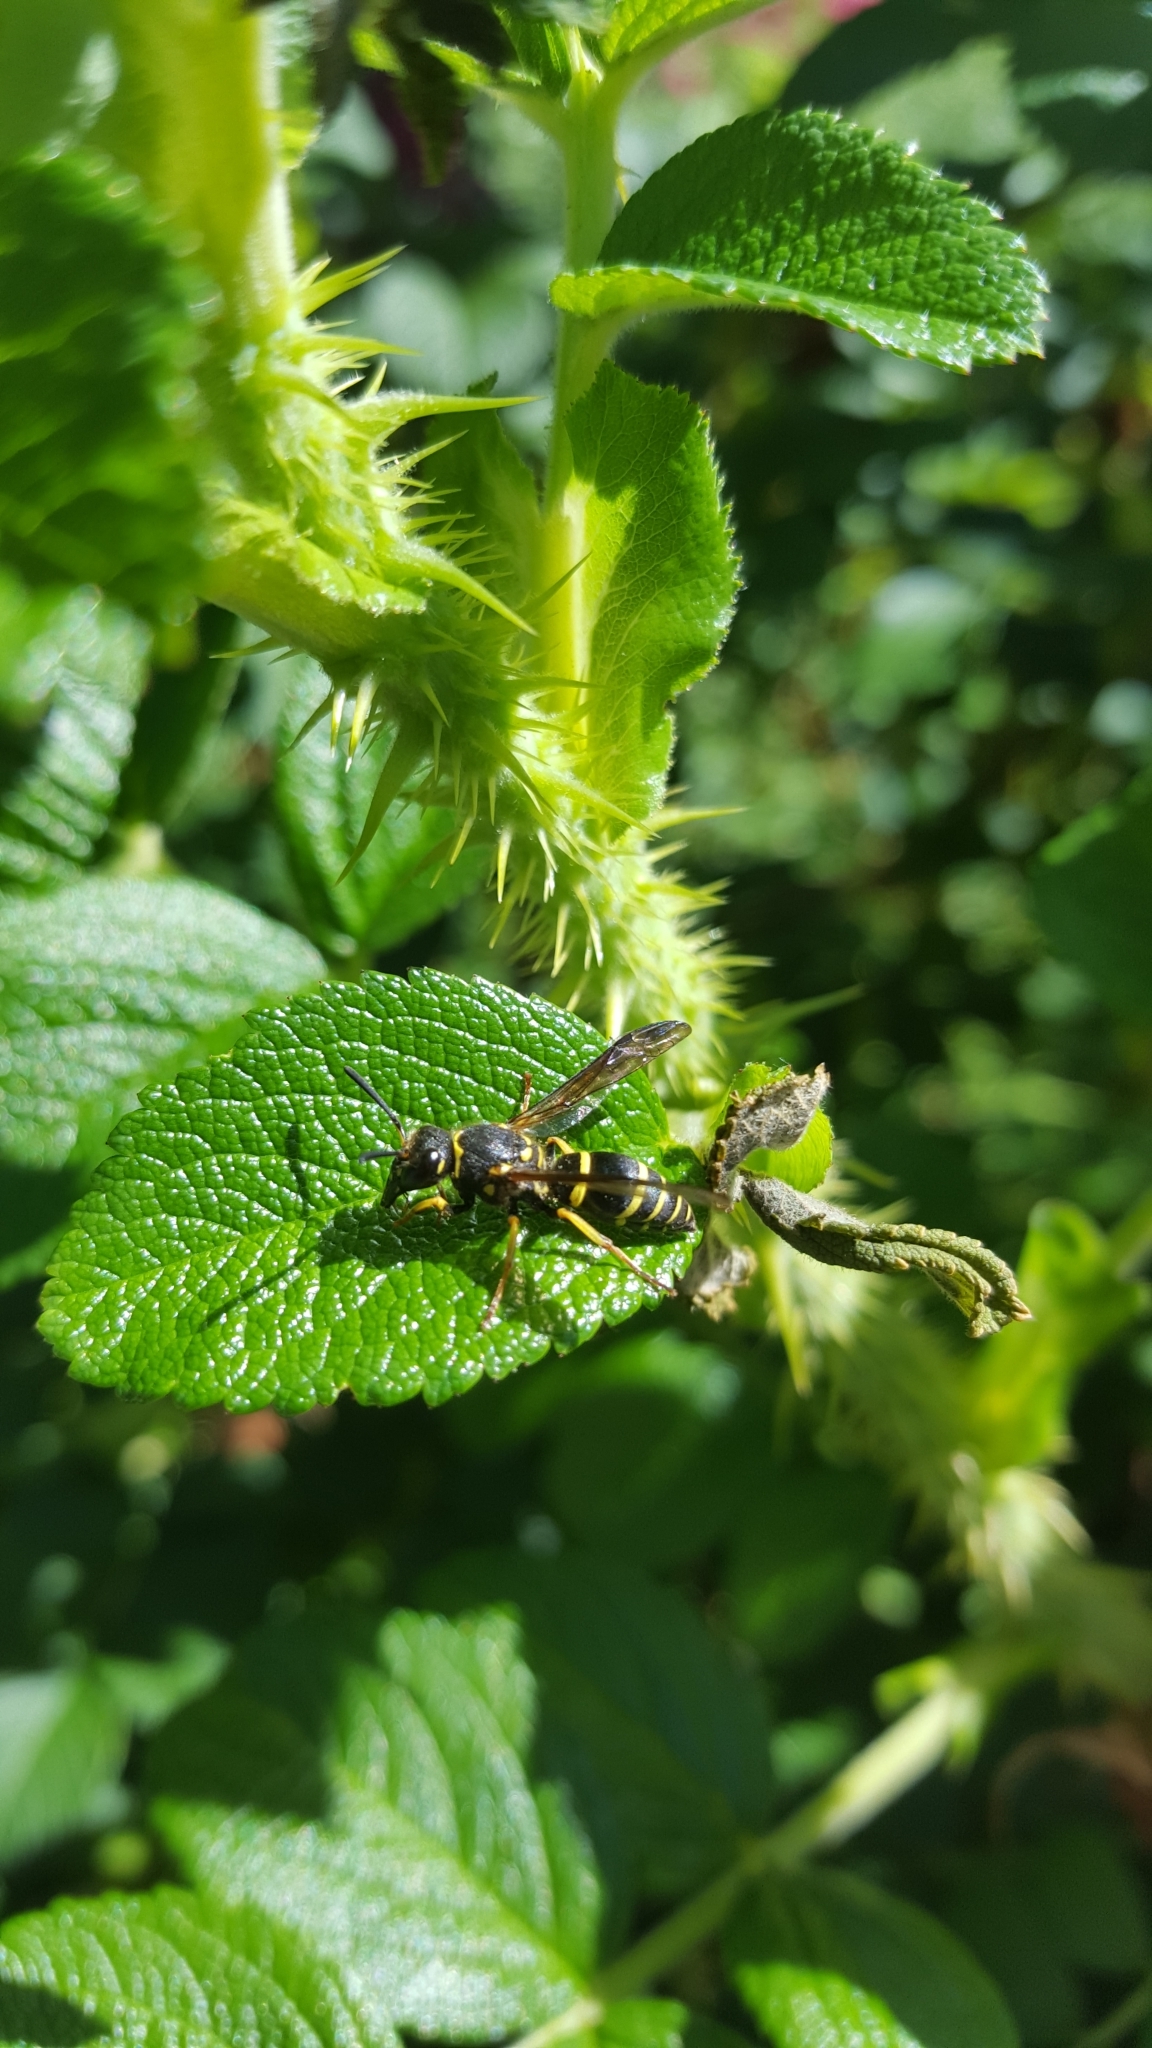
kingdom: Animalia
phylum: Arthropoda
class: Insecta
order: Hymenoptera
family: Vespidae
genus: Ancistrocerus
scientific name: Ancistrocerus catskill
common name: Vespid wasp
